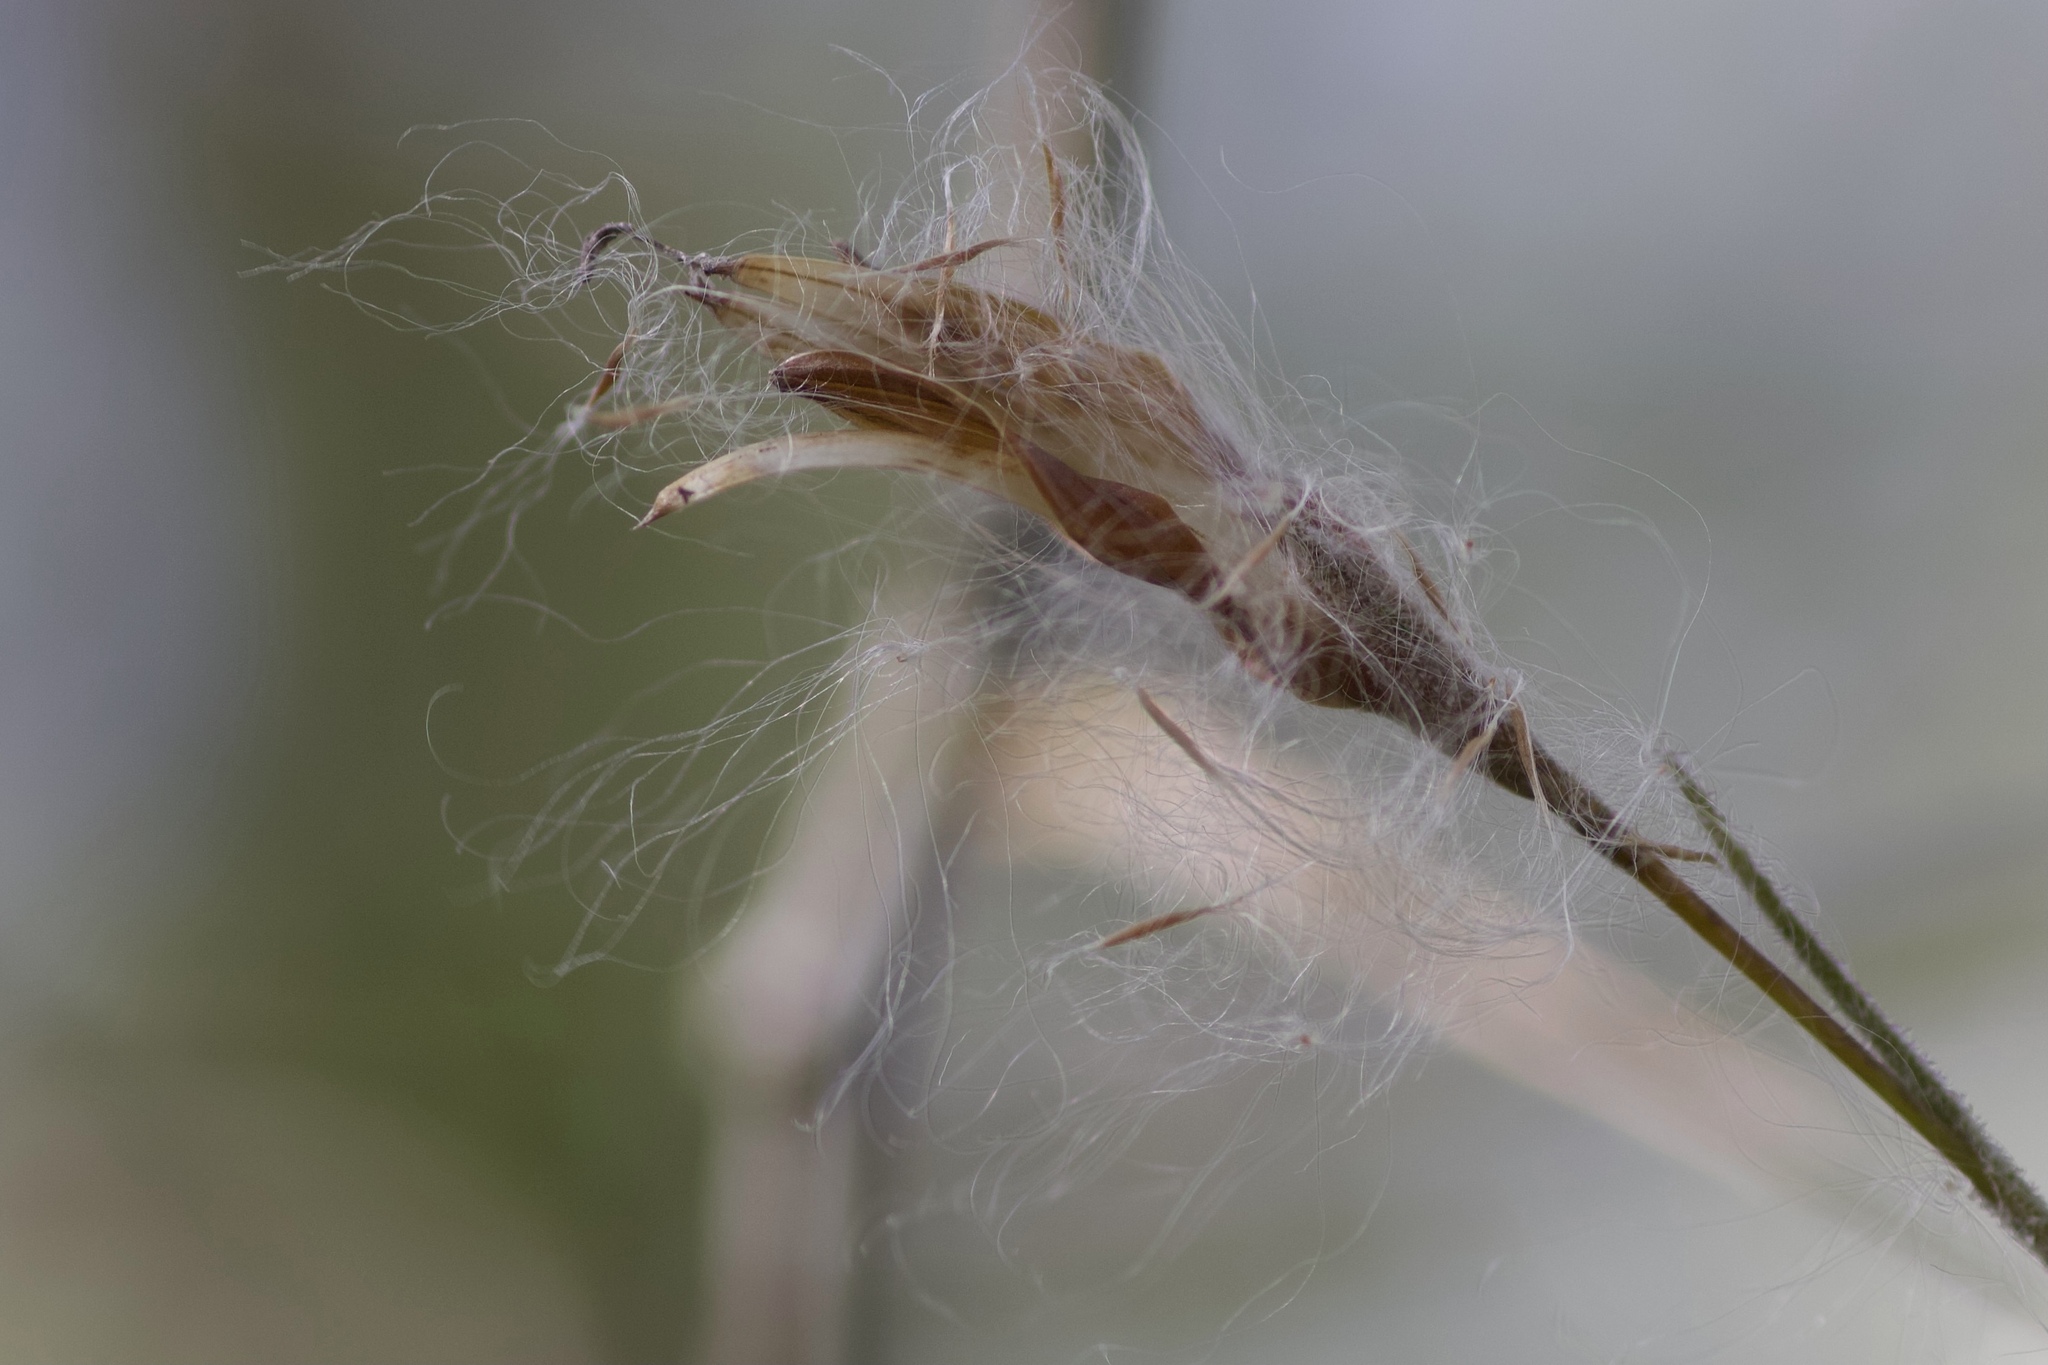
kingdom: Plantae
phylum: Tracheophyta
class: Liliopsida
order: Poales
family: Bromeliaceae
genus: Tillandsia
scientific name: Tillandsia recurvata
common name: Small ballmoss
